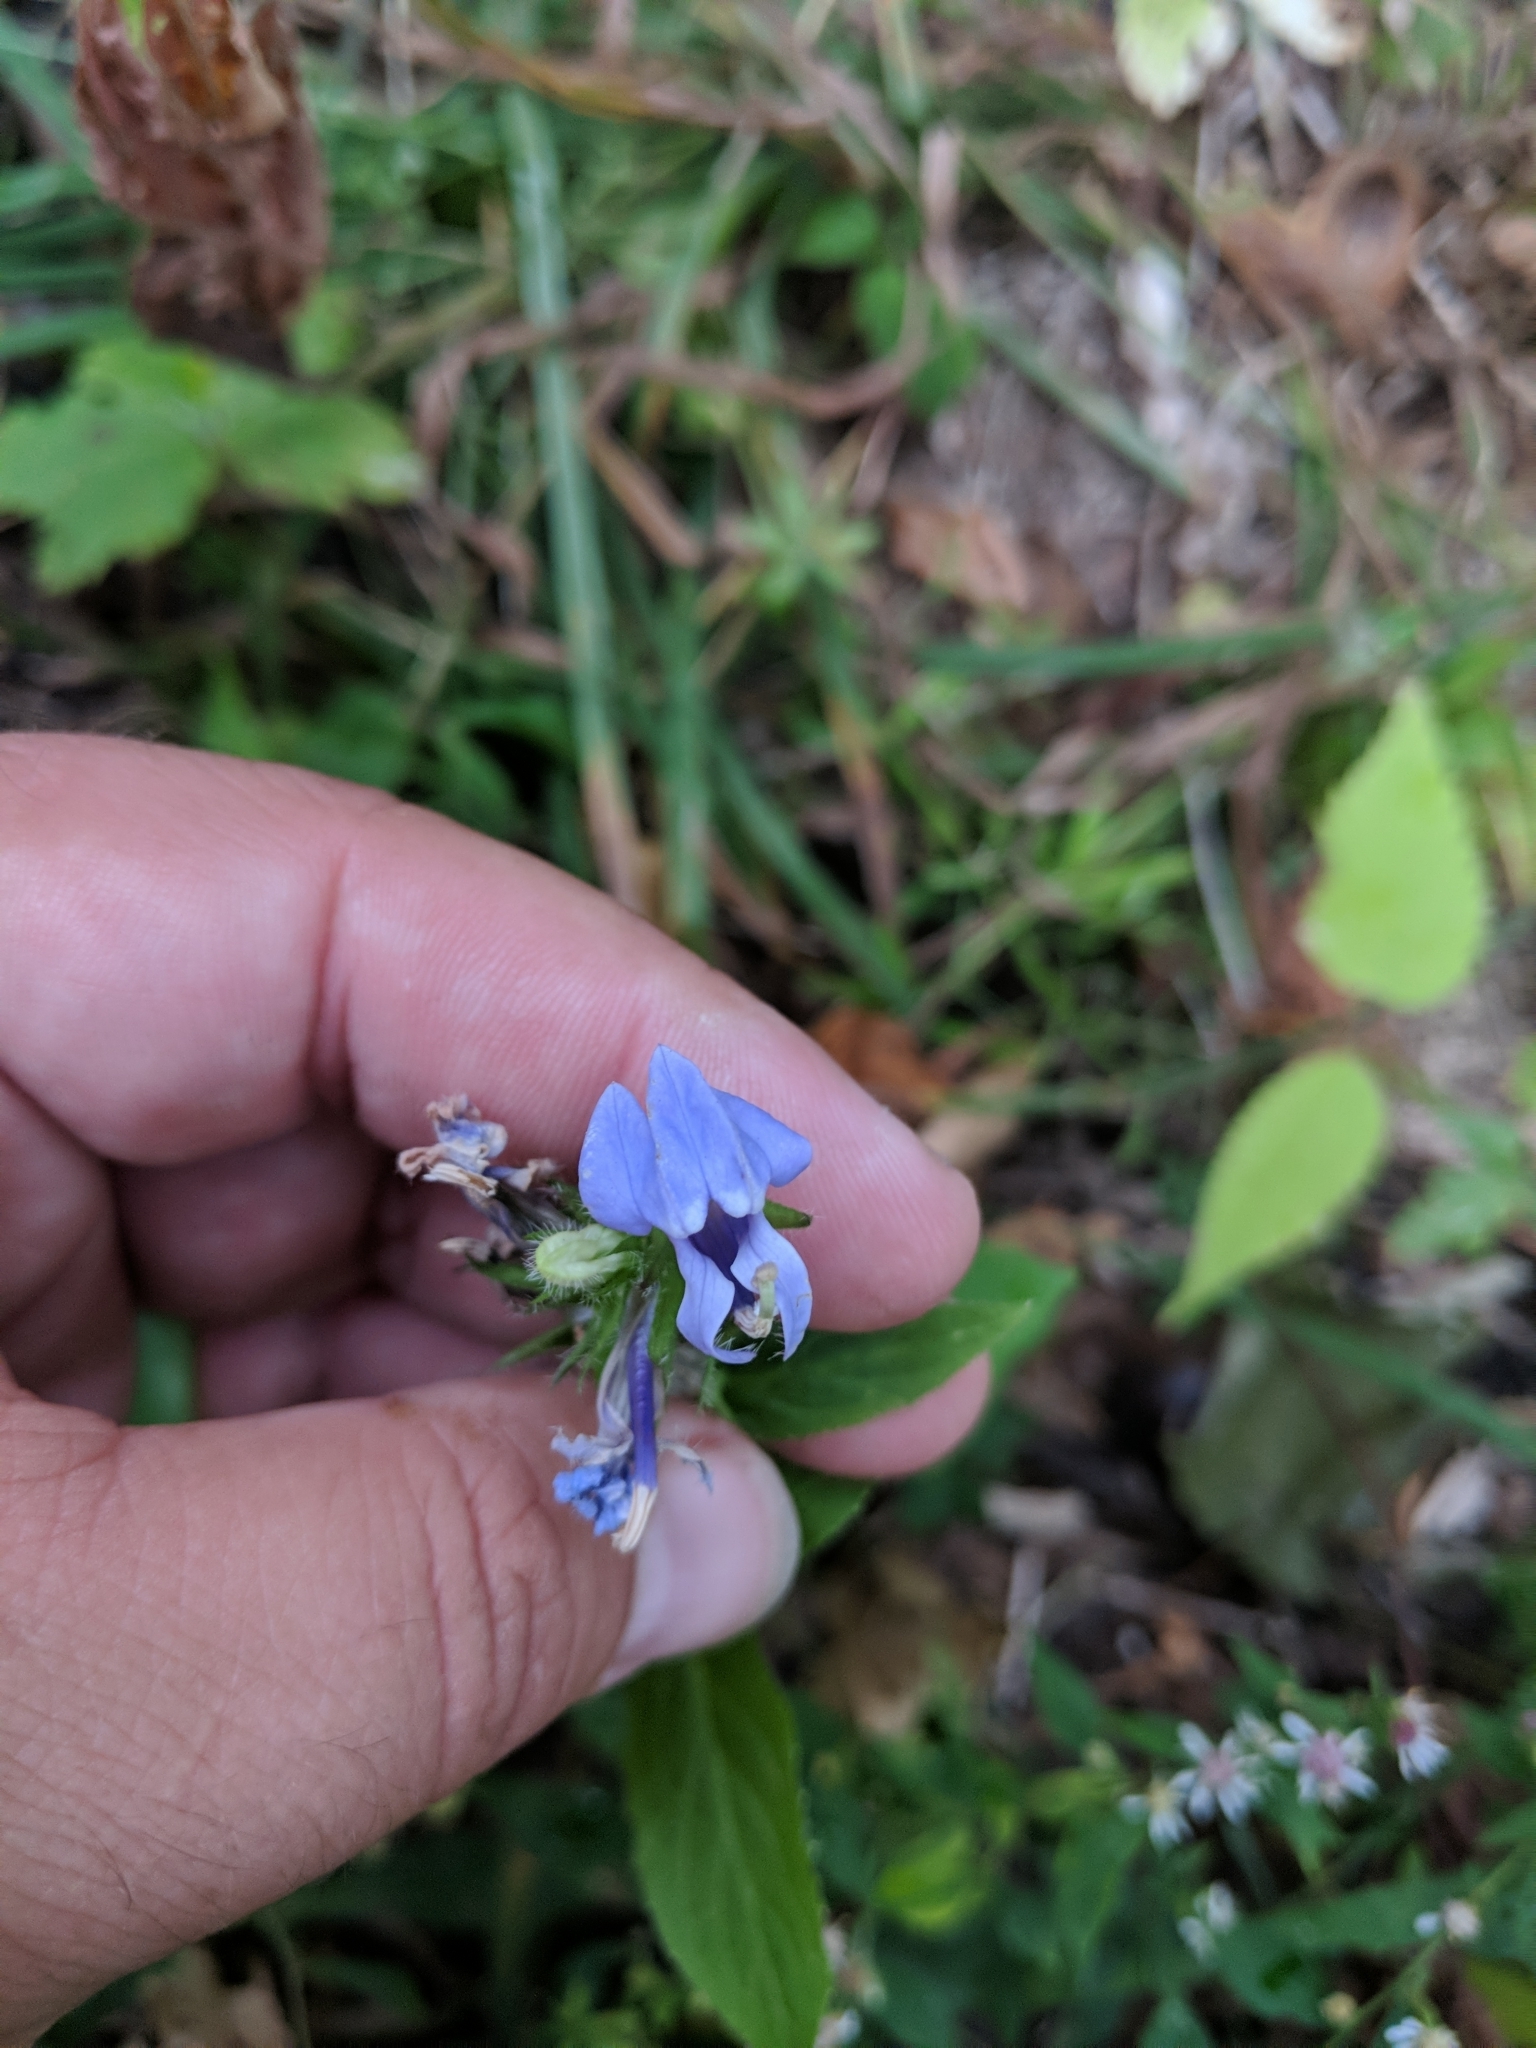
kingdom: Plantae
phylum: Tracheophyta
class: Magnoliopsida
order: Asterales
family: Campanulaceae
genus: Lobelia
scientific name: Lobelia siphilitica
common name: Great lobelia
